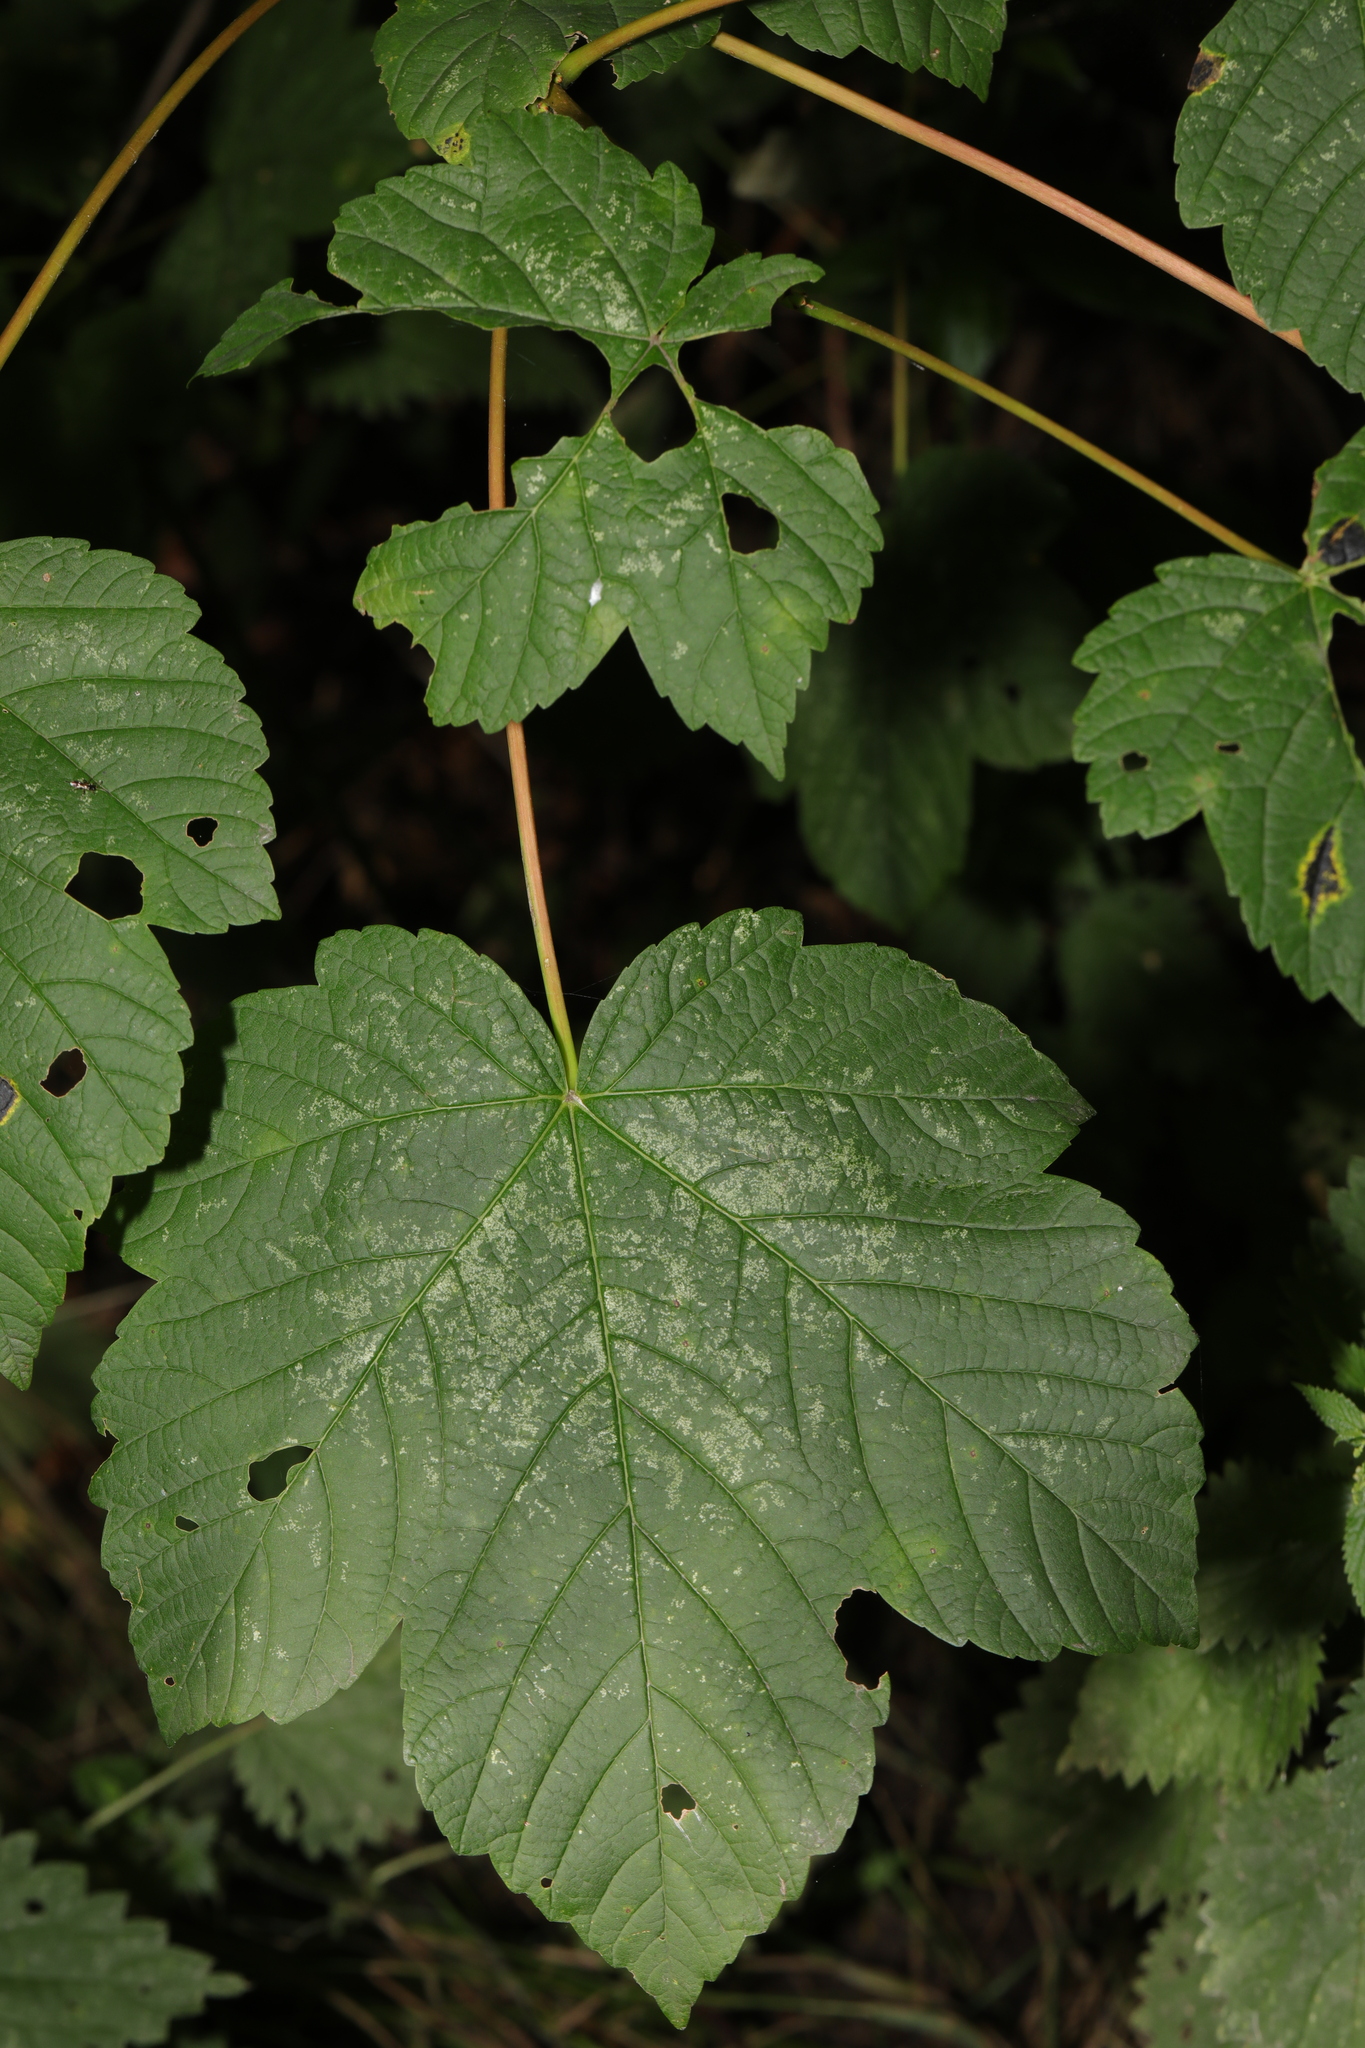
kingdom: Plantae
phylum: Tracheophyta
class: Magnoliopsida
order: Sapindales
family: Sapindaceae
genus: Acer
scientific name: Acer pseudoplatanus
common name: Sycamore
